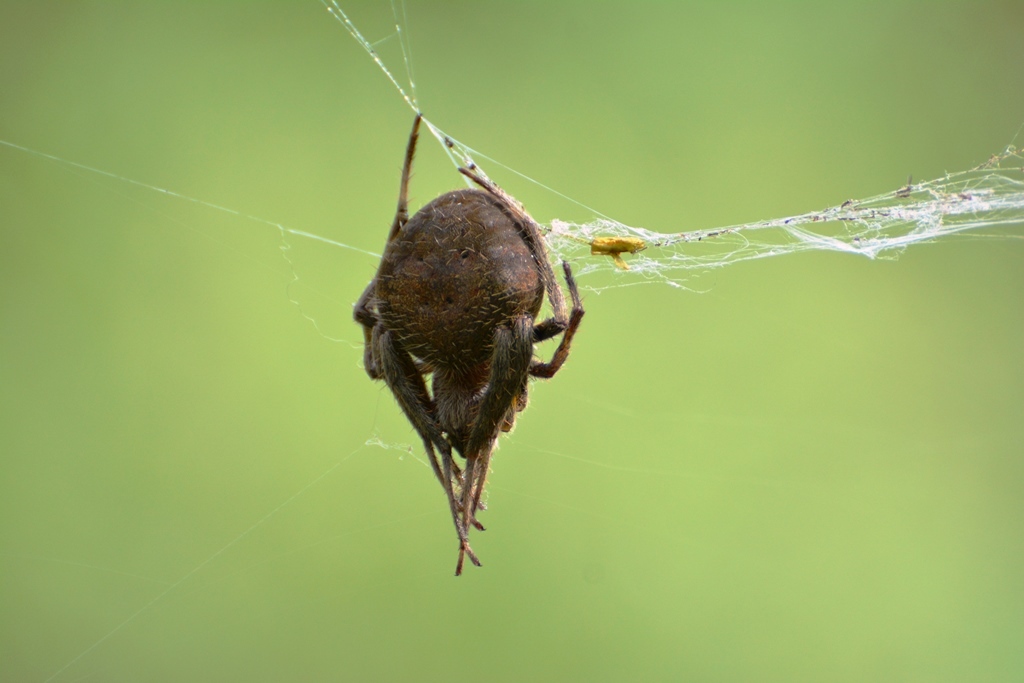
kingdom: Animalia
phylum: Arthropoda
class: Arachnida
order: Araneae
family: Araneidae
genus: Neoscona
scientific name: Neoscona crucifera
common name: Spotted orbweaver
